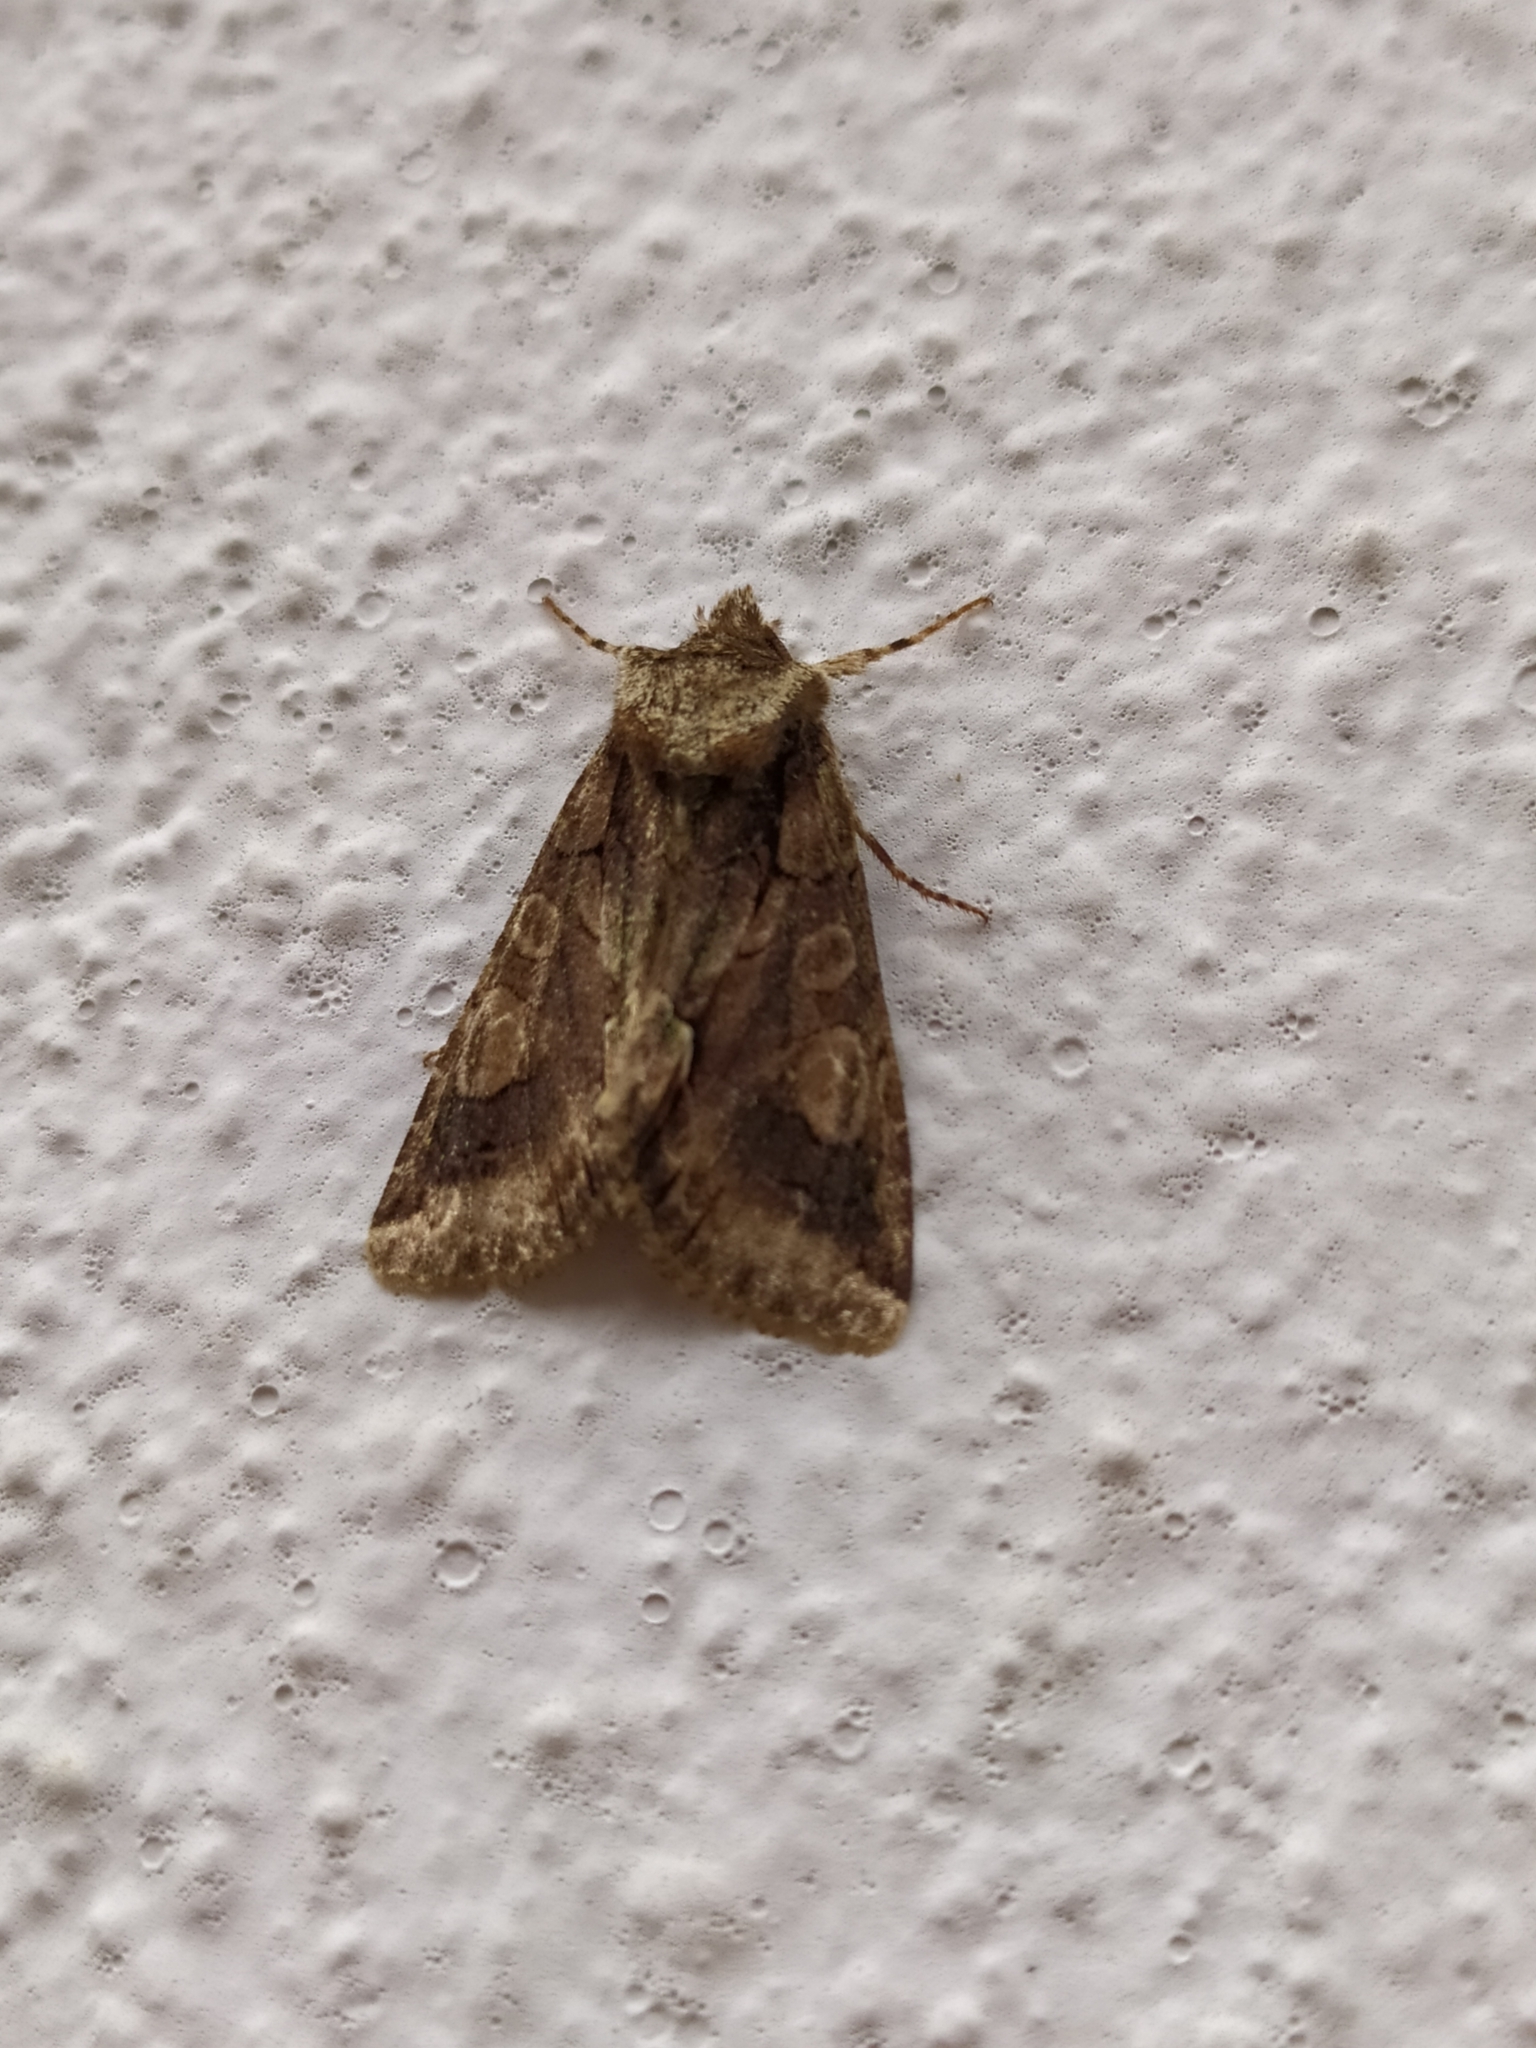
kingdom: Animalia
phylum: Arthropoda
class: Insecta
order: Lepidoptera
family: Noctuidae
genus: Allophyes
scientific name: Allophyes oxyacanthae
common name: Green-brindled crescent
